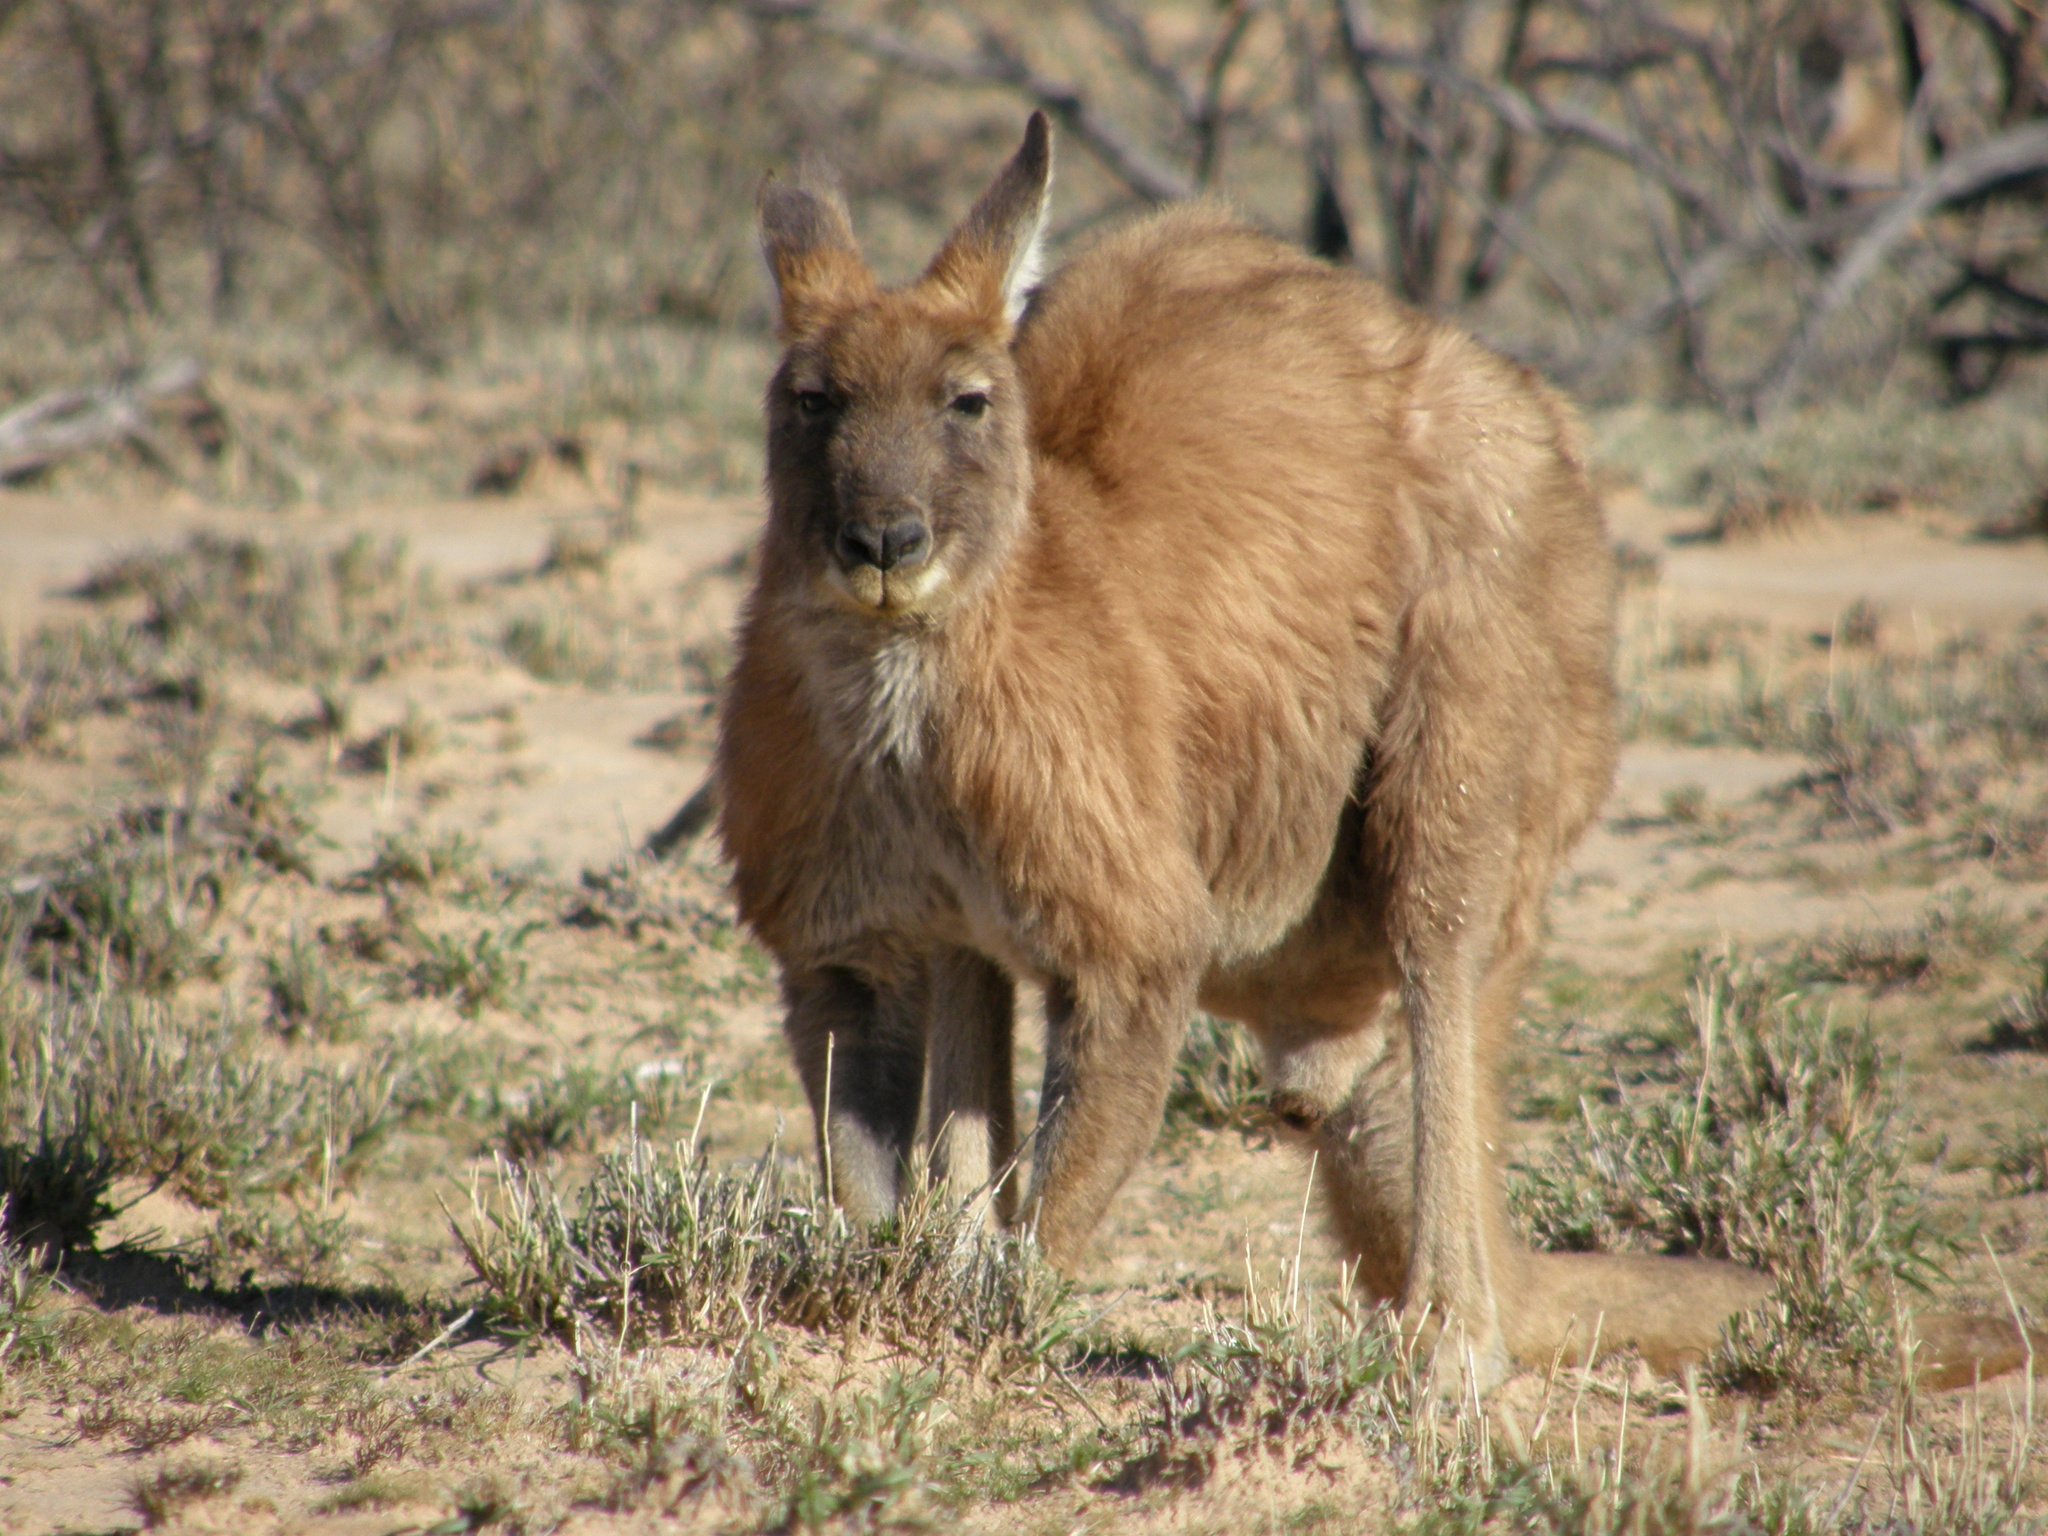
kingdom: Animalia
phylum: Chordata
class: Mammalia
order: Diprotodontia
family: Macropodidae
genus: Macropus
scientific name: Macropus robustus
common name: Eastern wallaroo
